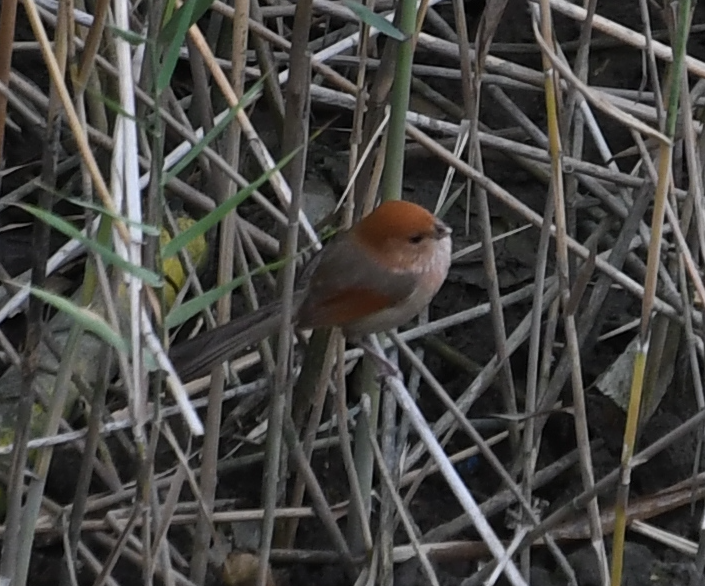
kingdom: Animalia
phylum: Chordata
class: Aves
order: Passeriformes
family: Sylviidae
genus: Sinosuthora
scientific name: Sinosuthora webbiana
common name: Vinous-throated parrotbill
